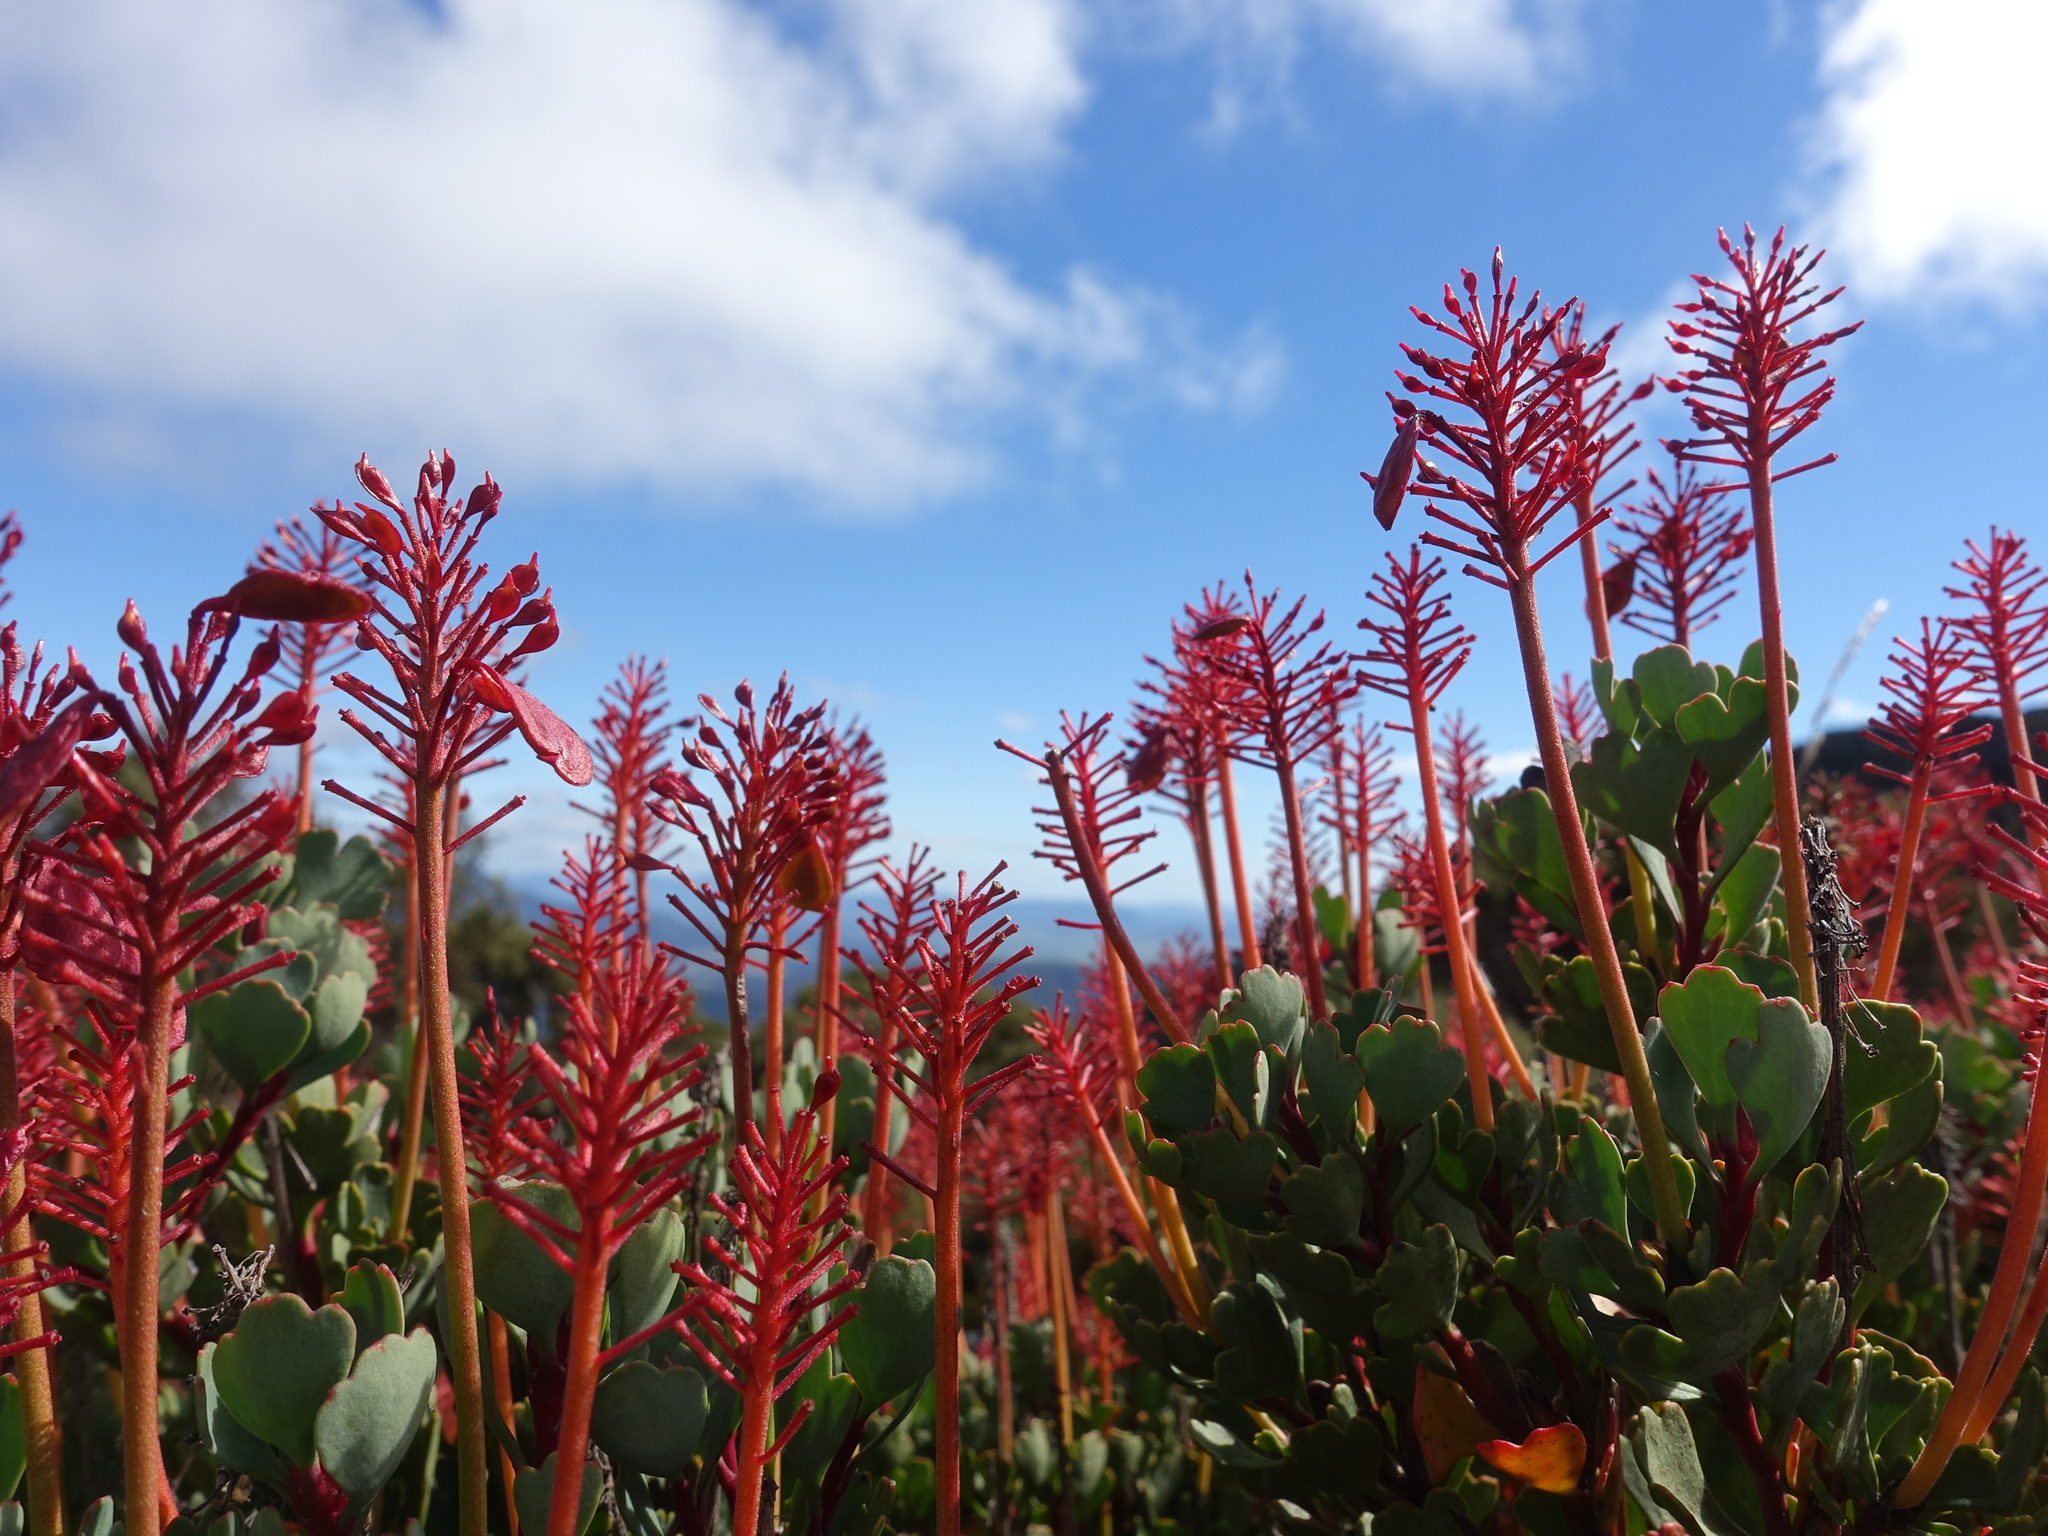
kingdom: Plantae
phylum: Tracheophyta
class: Magnoliopsida
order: Proteales
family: Proteaceae
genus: Bellendena
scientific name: Bellendena montana
